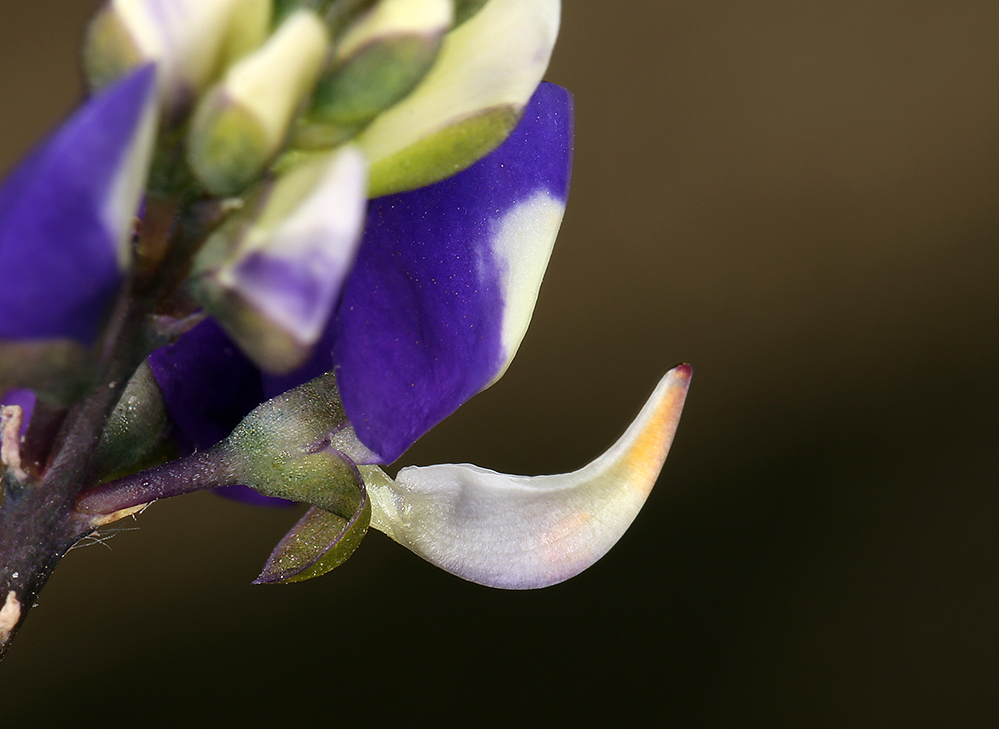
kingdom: Plantae
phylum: Tracheophyta
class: Magnoliopsida
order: Fabales
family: Fabaceae
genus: Lupinus
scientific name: Lupinus
